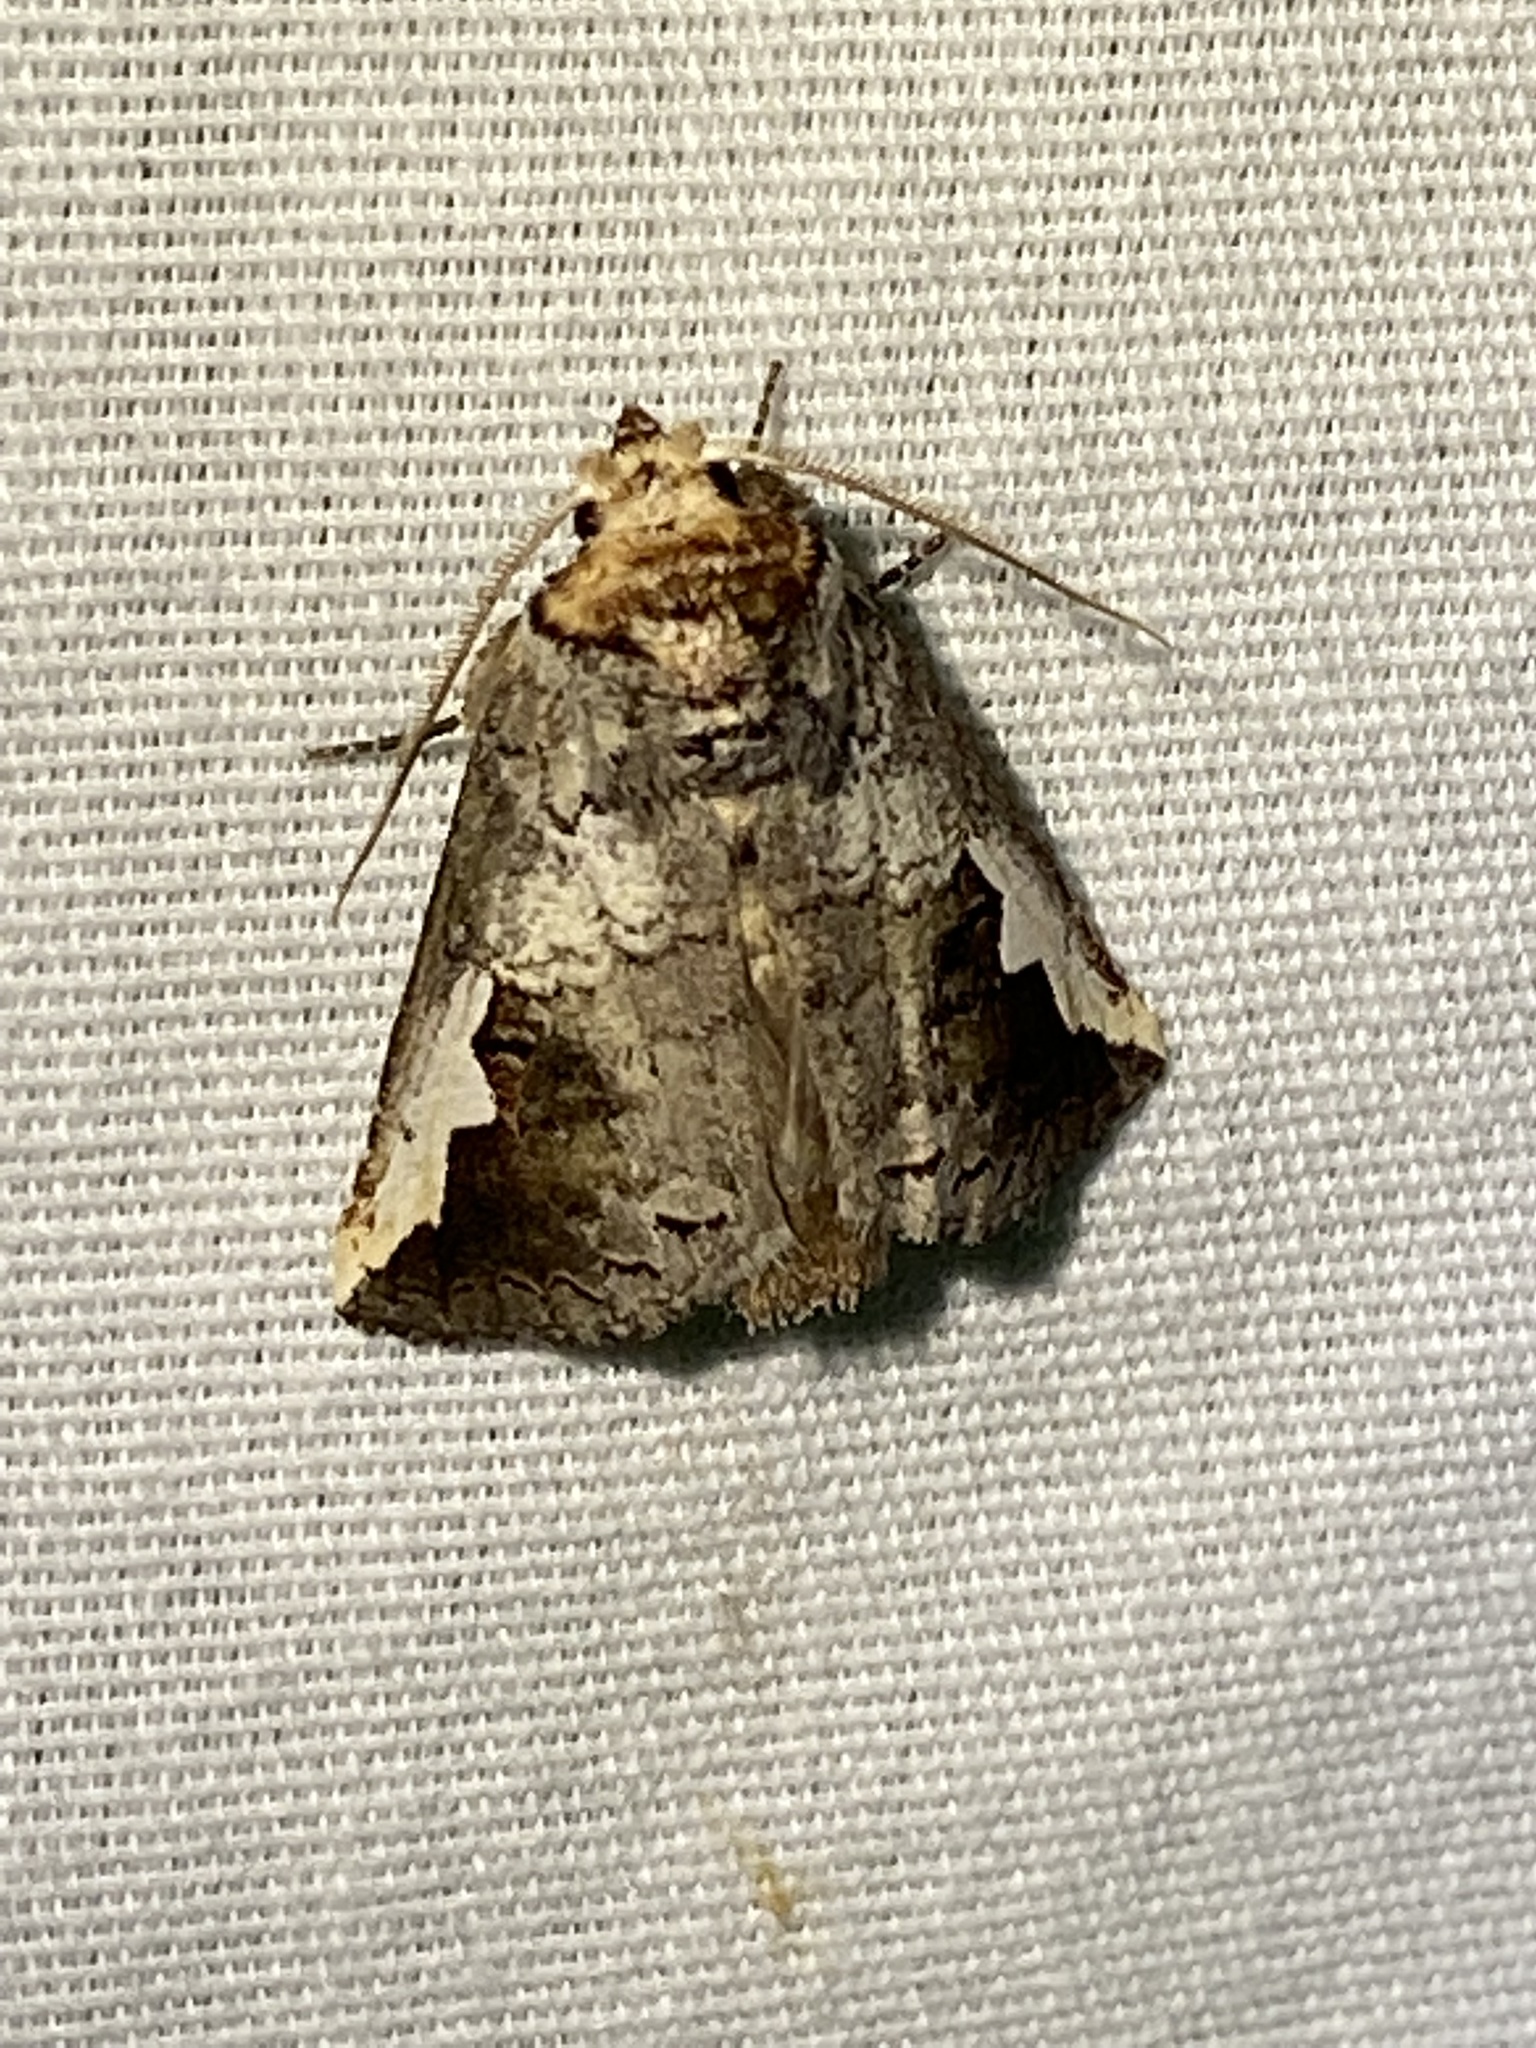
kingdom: Animalia
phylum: Arthropoda
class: Insecta
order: Lepidoptera
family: Notodontidae
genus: Symmerista
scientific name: Symmerista
